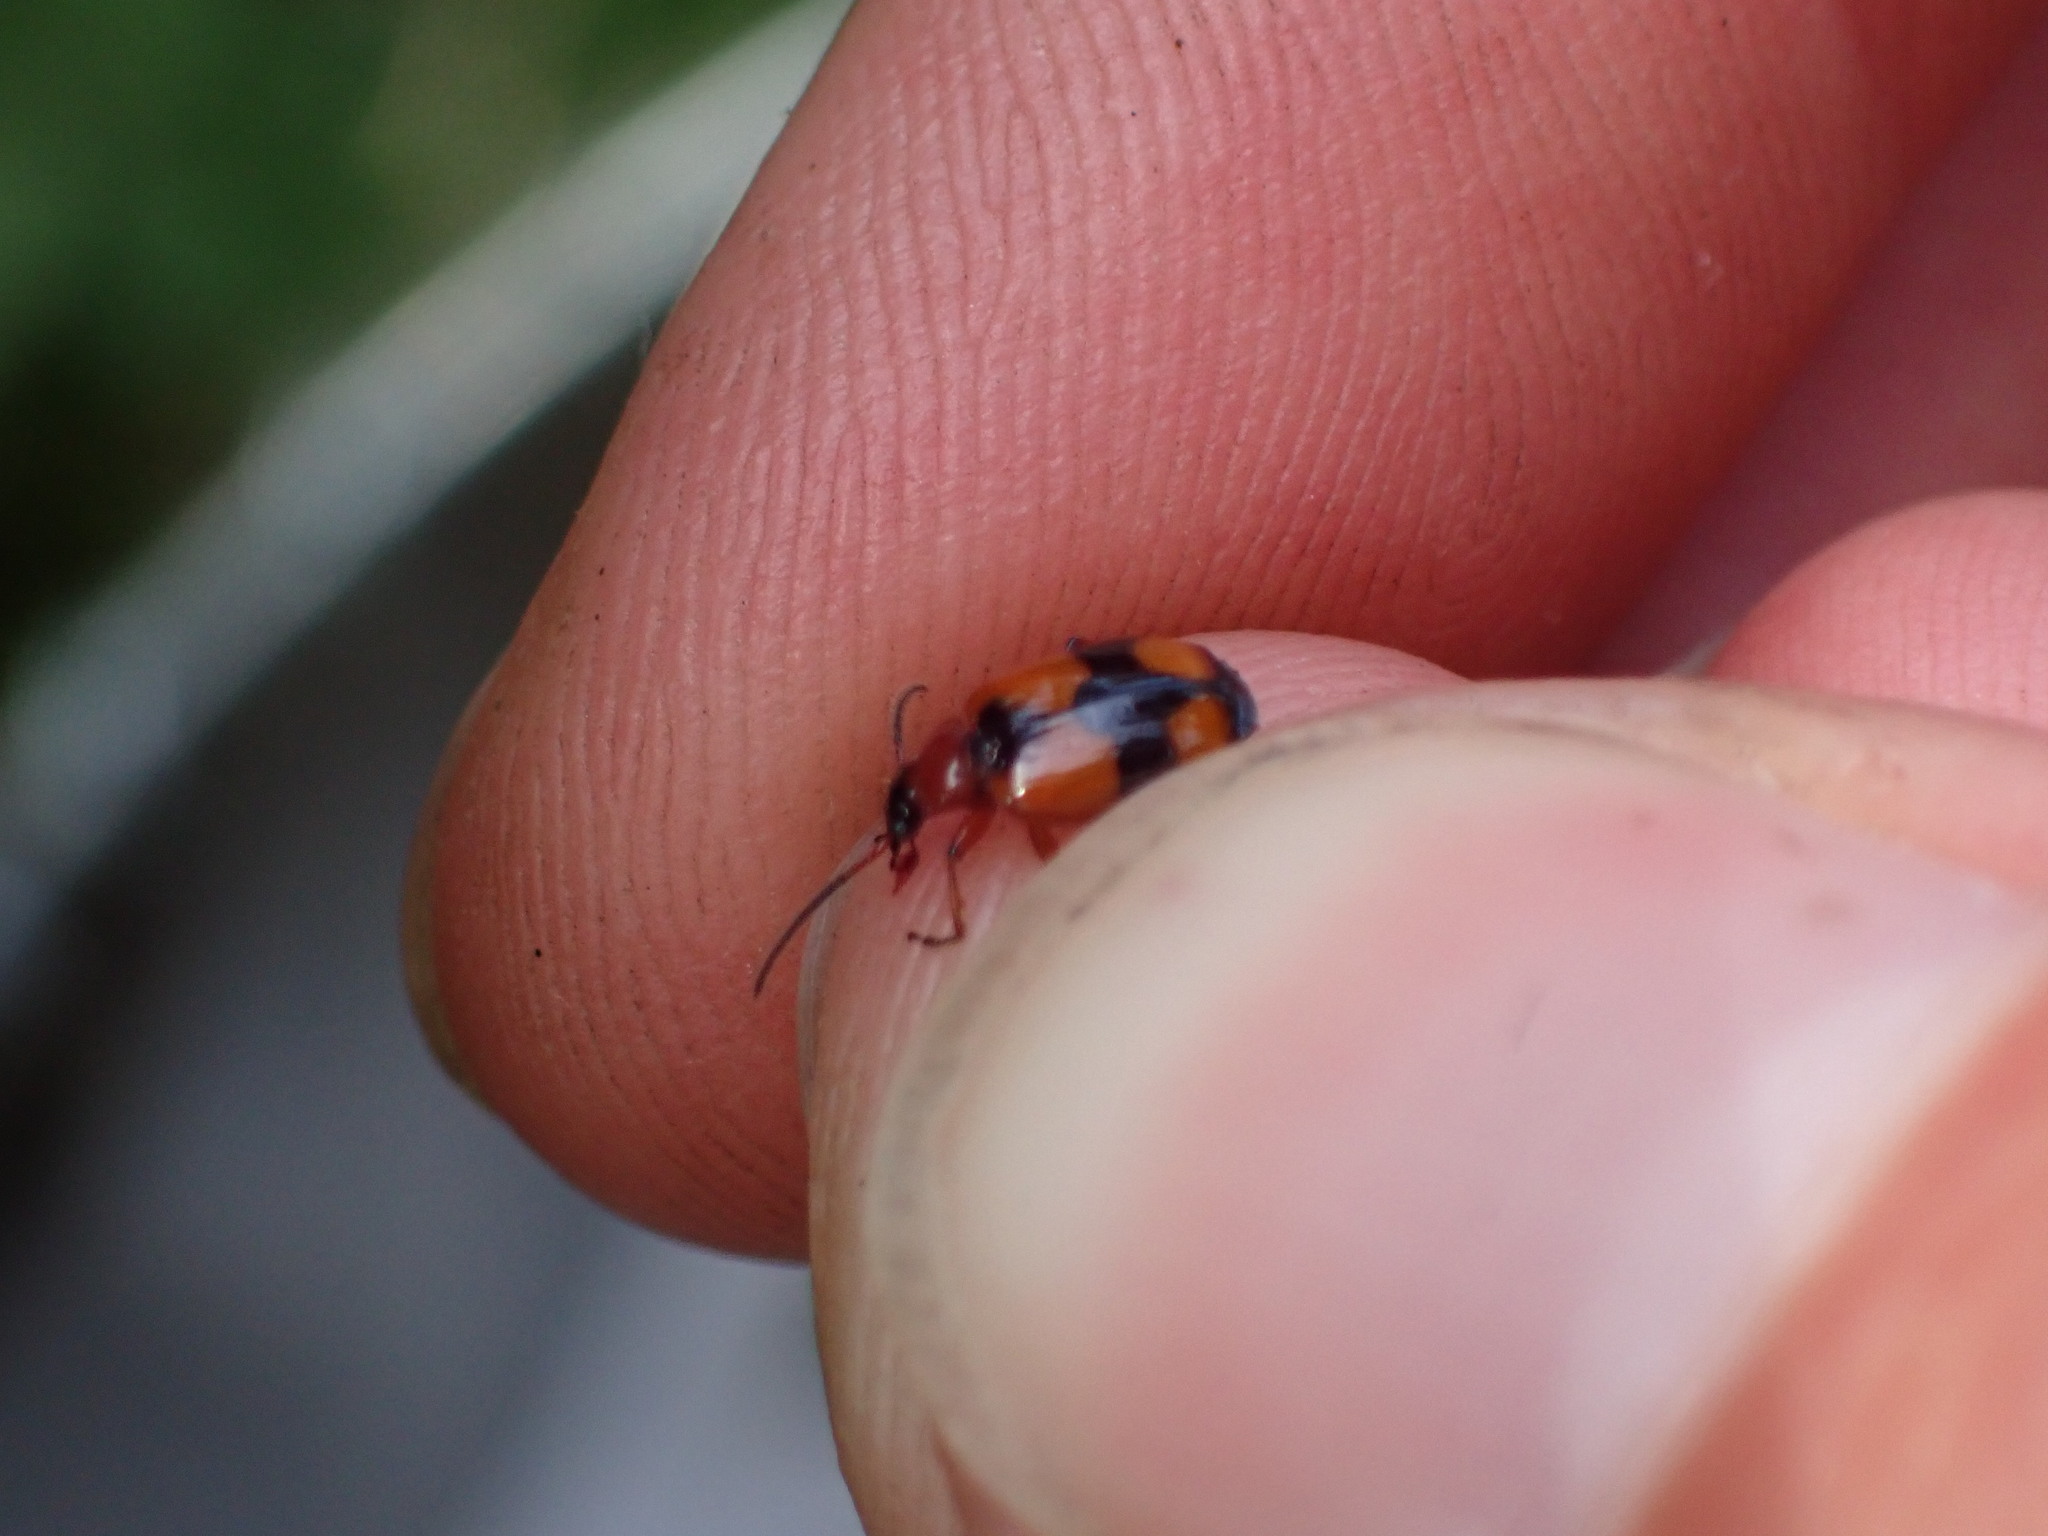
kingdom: Animalia
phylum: Arthropoda
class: Insecta
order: Coleoptera
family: Carabidae
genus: Lebia
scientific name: Lebia cruxminor
